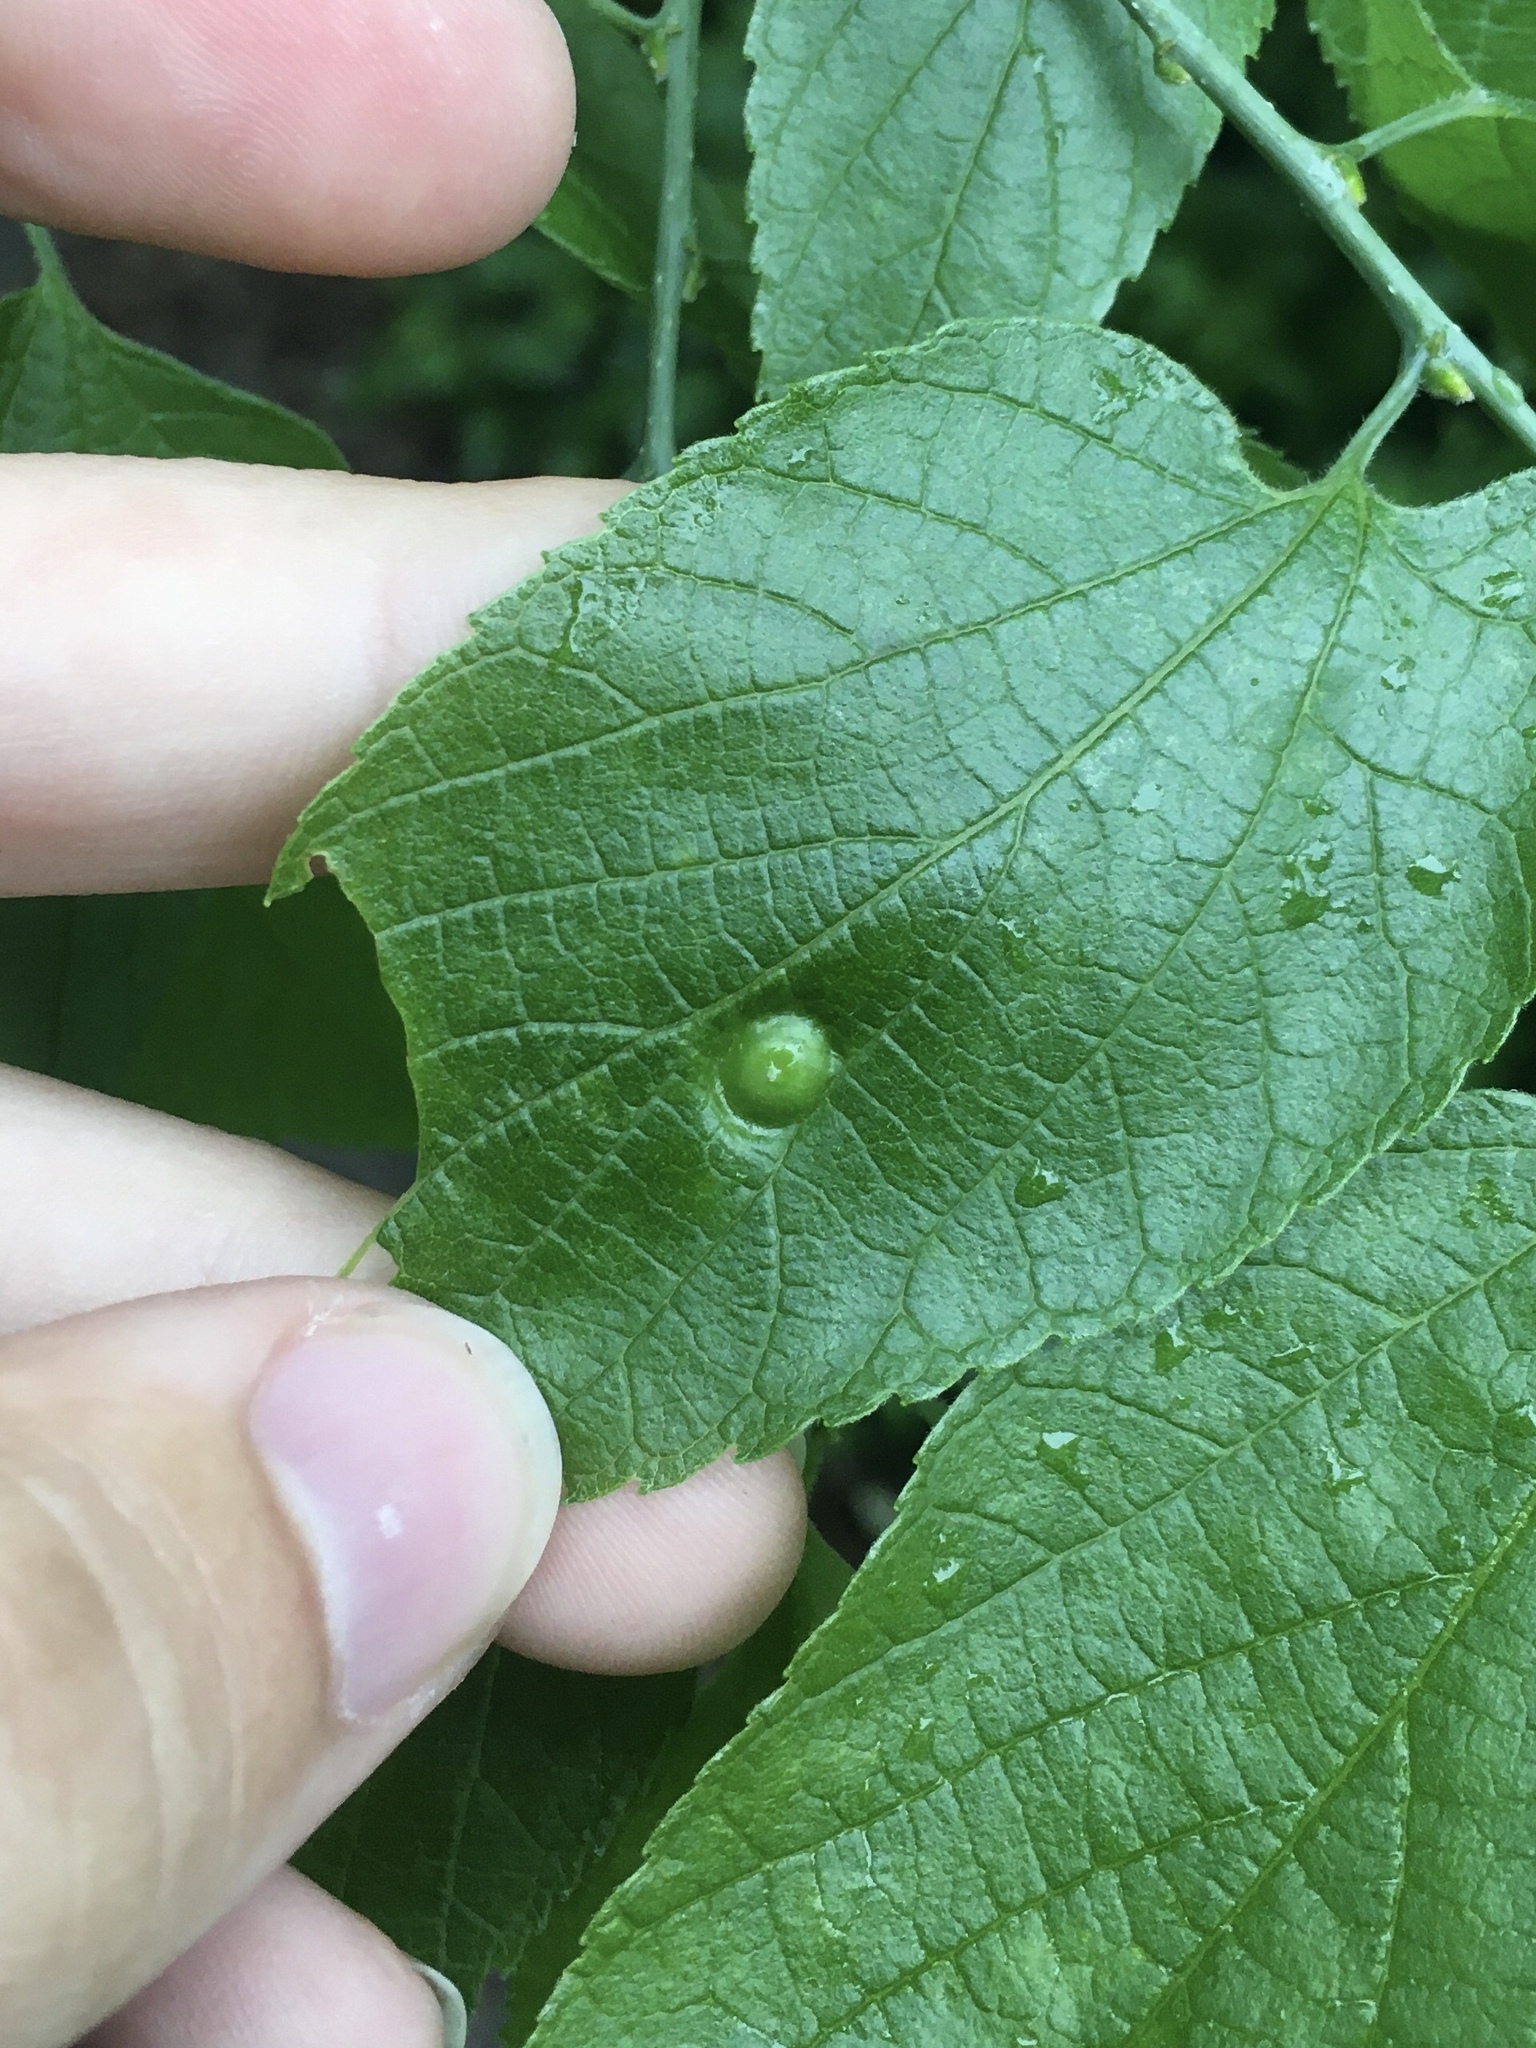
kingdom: Animalia
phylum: Arthropoda
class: Insecta
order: Hemiptera
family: Aphalaridae
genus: Pachypsylla
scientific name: Pachypsylla celtidisumbilicus
